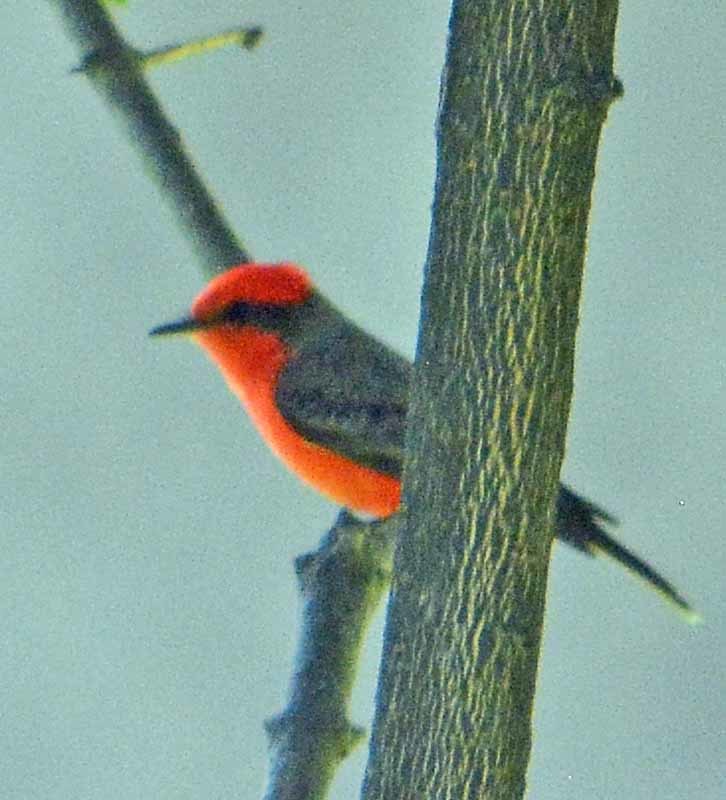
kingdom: Animalia
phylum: Chordata
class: Aves
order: Passeriformes
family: Tyrannidae
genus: Pyrocephalus
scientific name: Pyrocephalus rubinus
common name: Vermilion flycatcher
